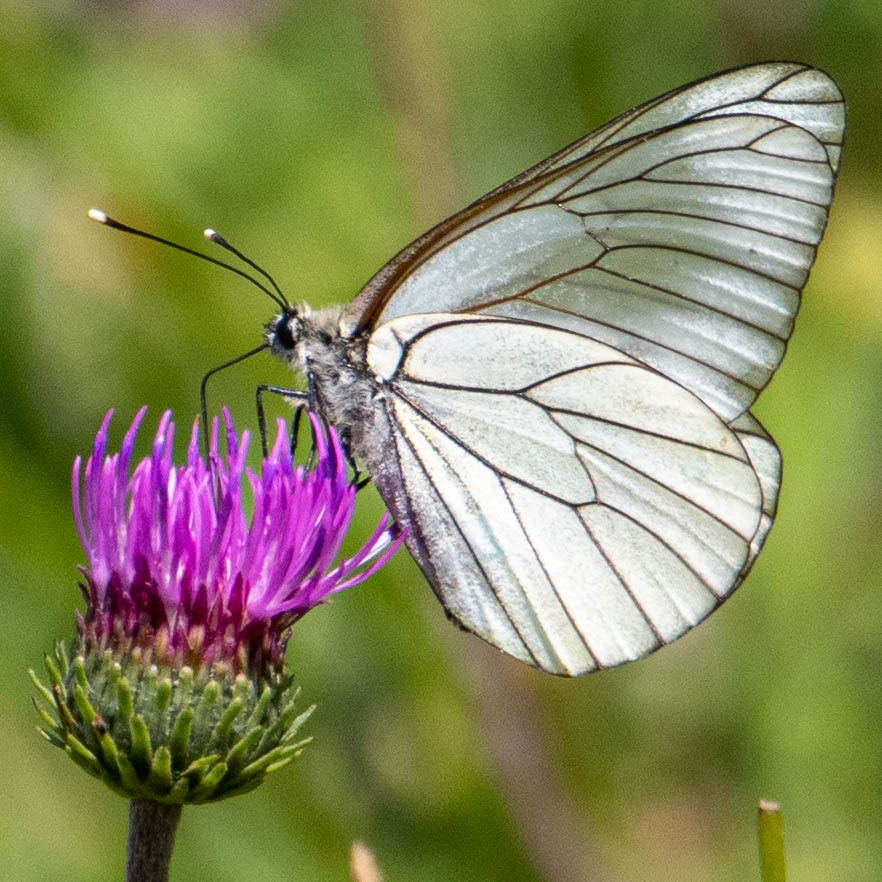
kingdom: Animalia
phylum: Arthropoda
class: Insecta
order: Lepidoptera
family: Pieridae
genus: Aporia
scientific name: Aporia crataegi
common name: Black-veined white
